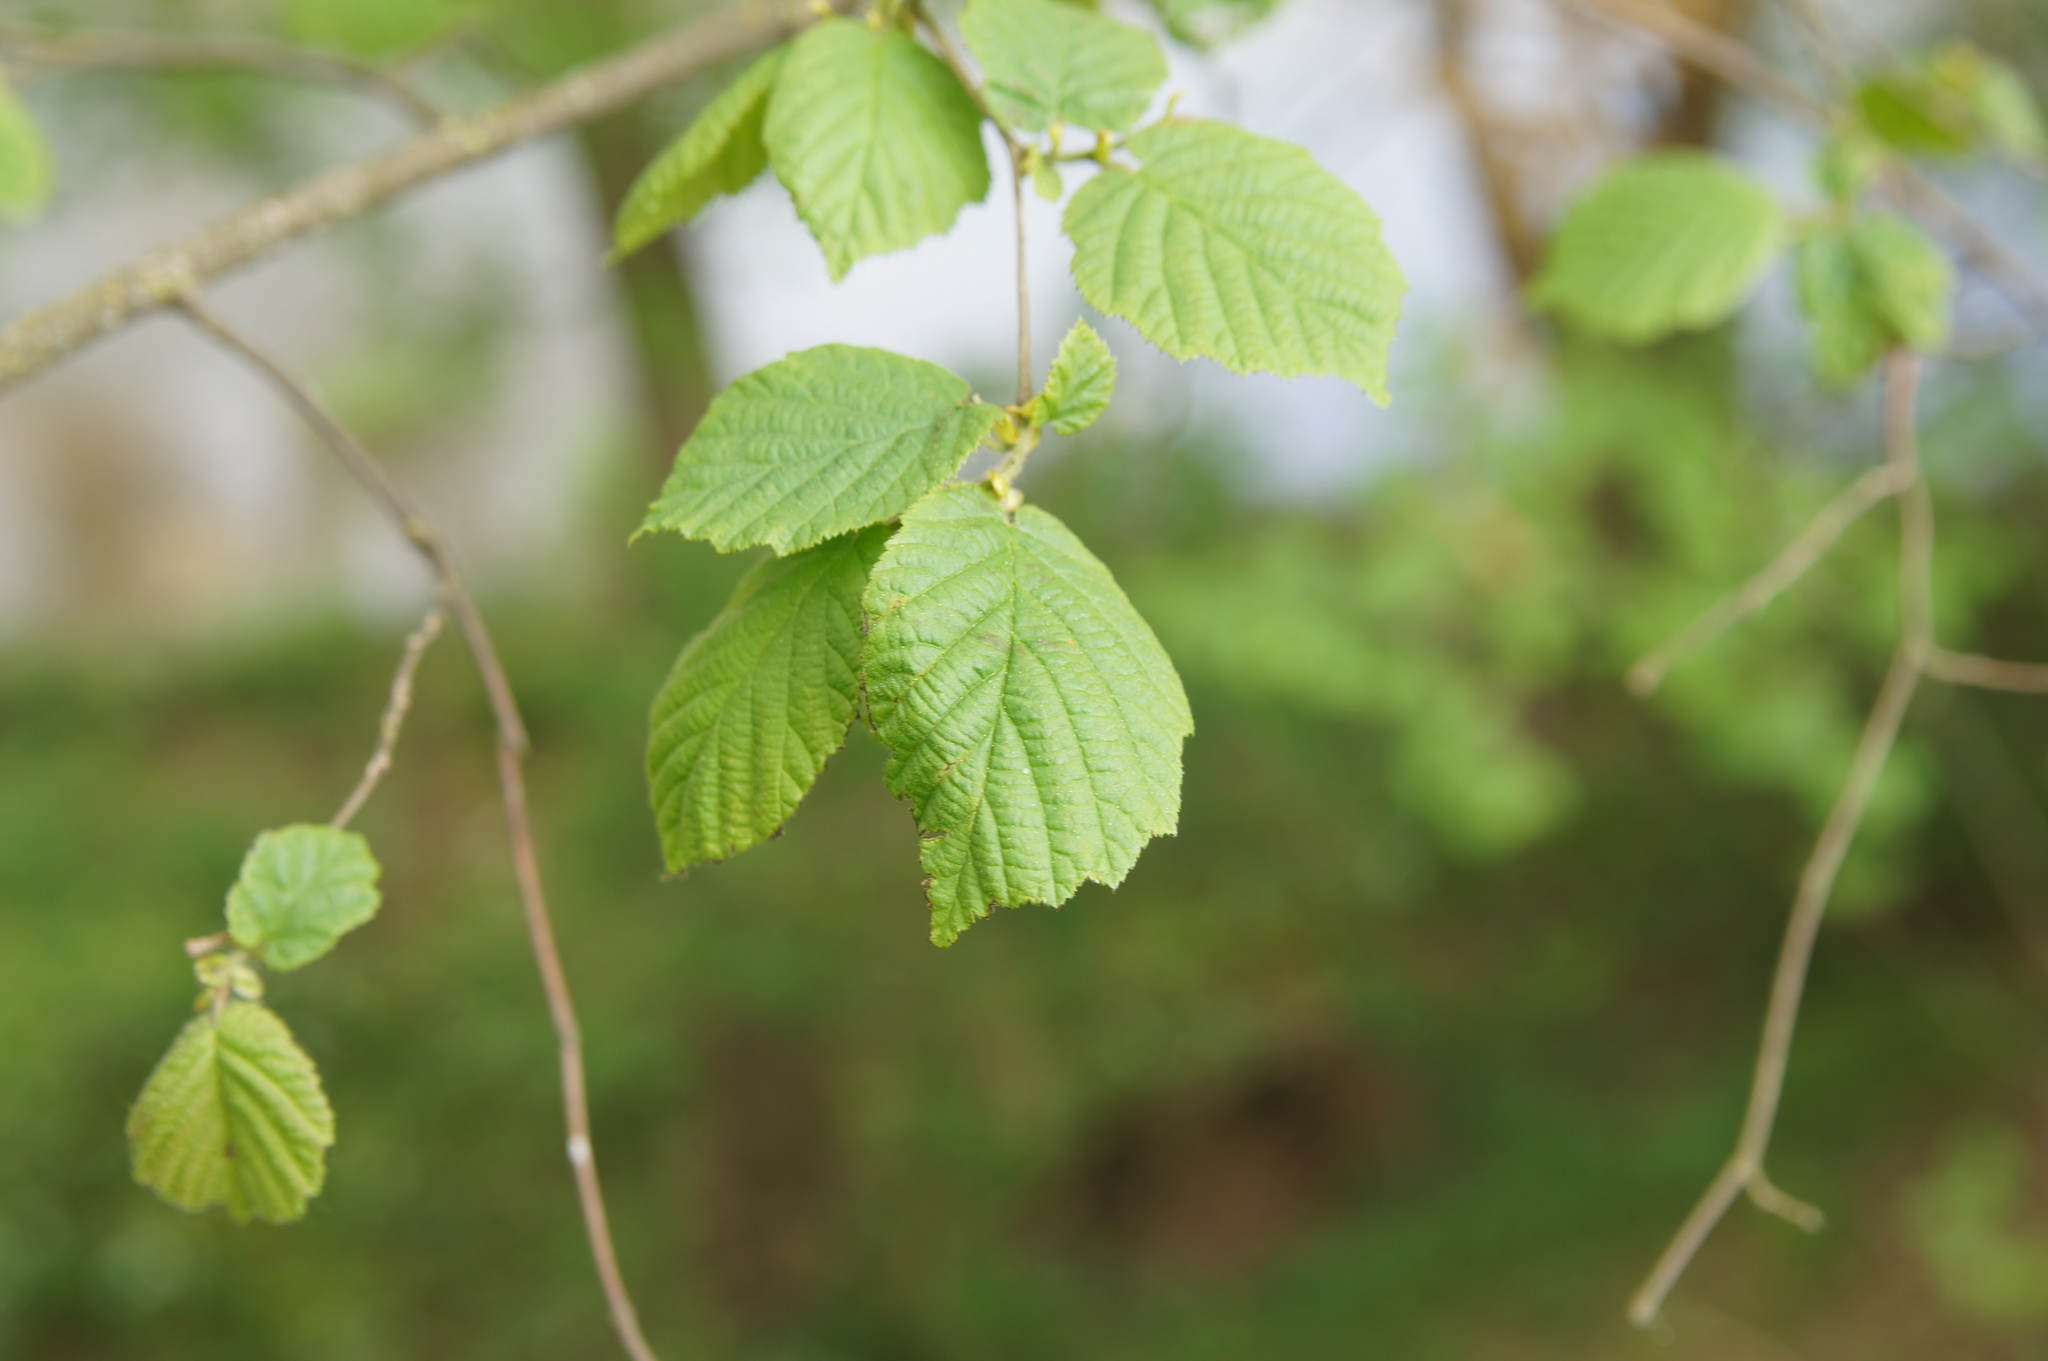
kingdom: Plantae
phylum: Tracheophyta
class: Magnoliopsida
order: Fagales
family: Betulaceae
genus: Corylus
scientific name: Corylus avellana
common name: European hazel
